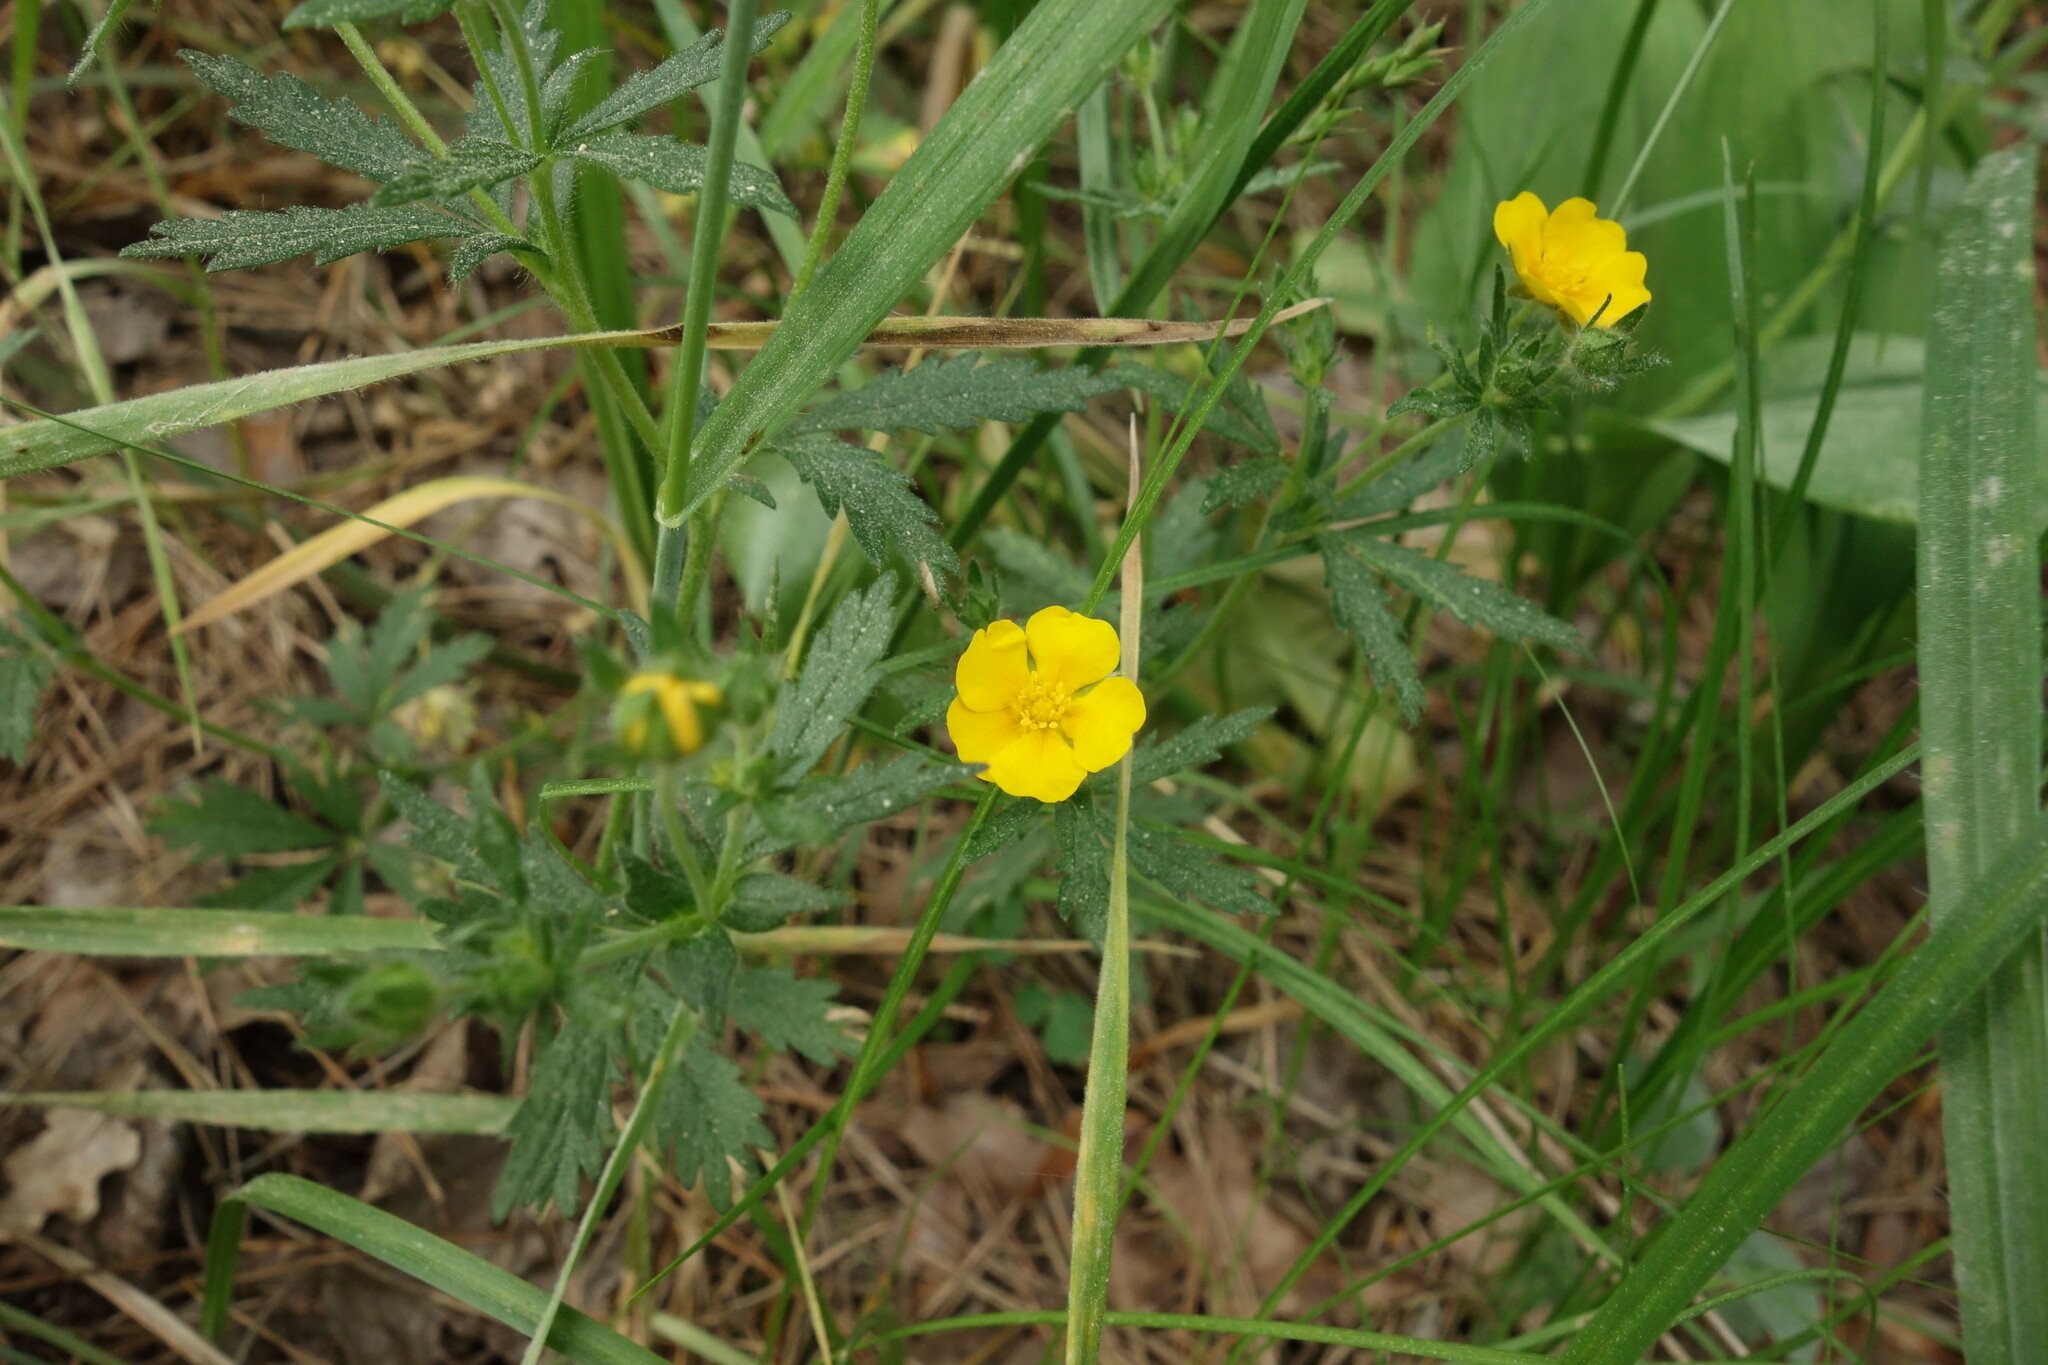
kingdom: Plantae
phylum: Tracheophyta
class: Magnoliopsida
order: Rosales
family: Rosaceae
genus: Potentilla
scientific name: Potentilla thuringiaca
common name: European cinquefoil
